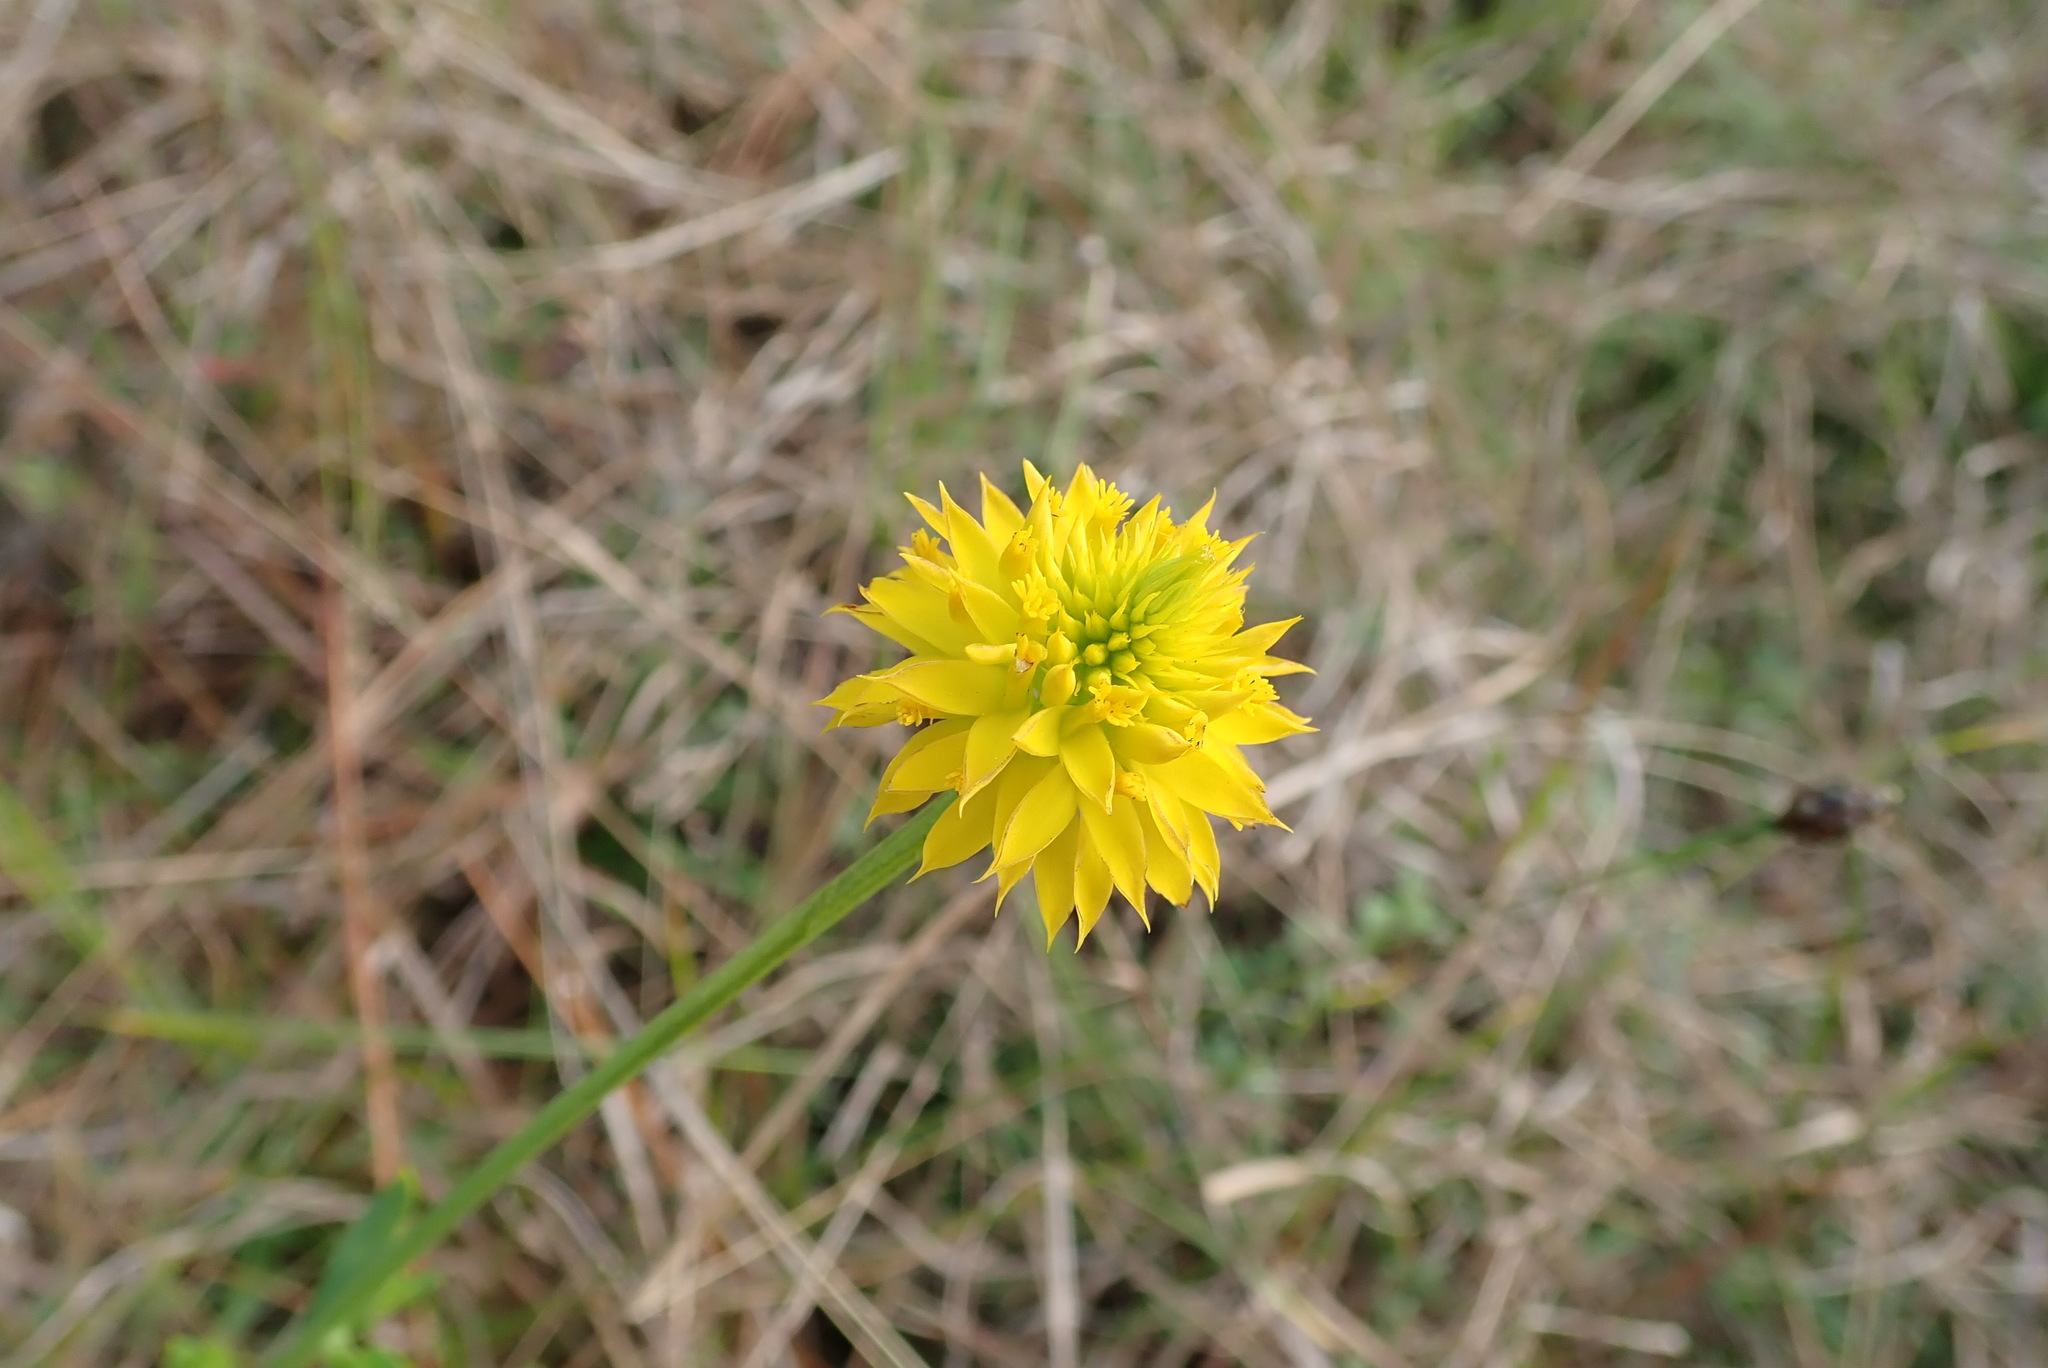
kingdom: Plantae
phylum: Tracheophyta
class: Magnoliopsida
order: Fabales
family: Polygalaceae
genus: Polygala
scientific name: Polygala rugelii
